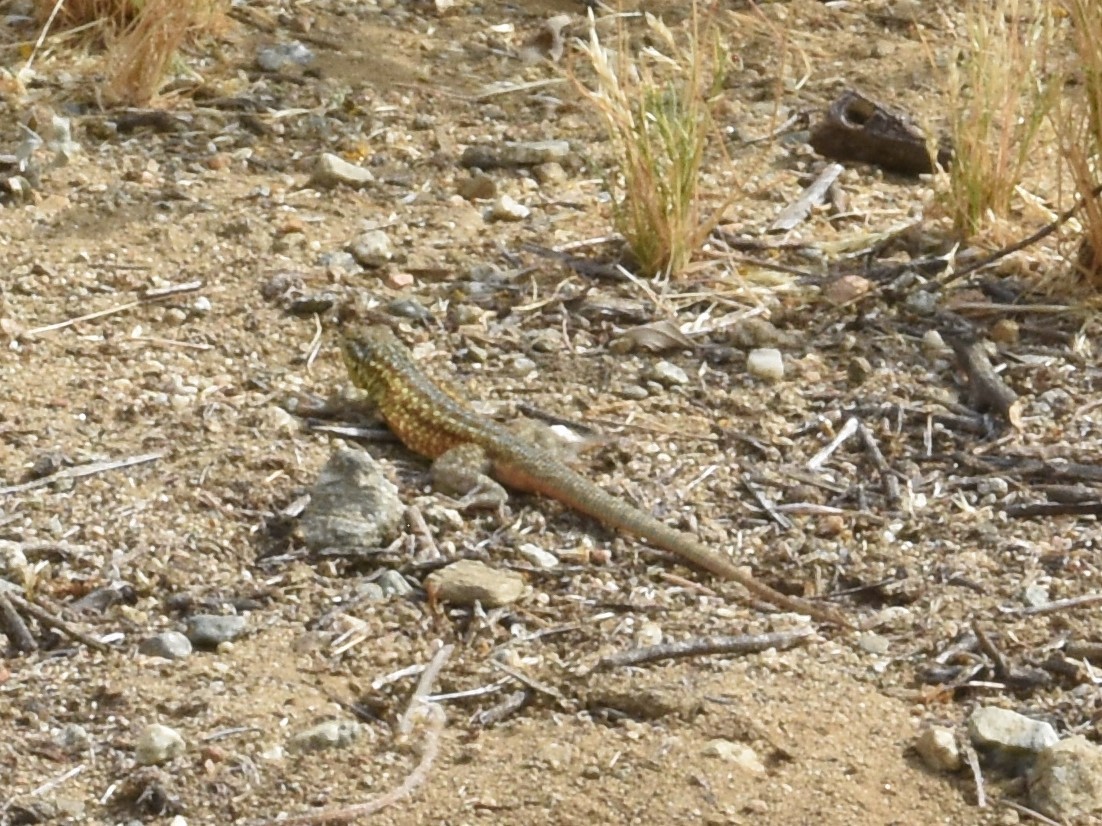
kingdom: Animalia
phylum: Chordata
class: Squamata
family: Phrynosomatidae
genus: Uta
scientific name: Uta stansburiana
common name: Side-blotched lizard
